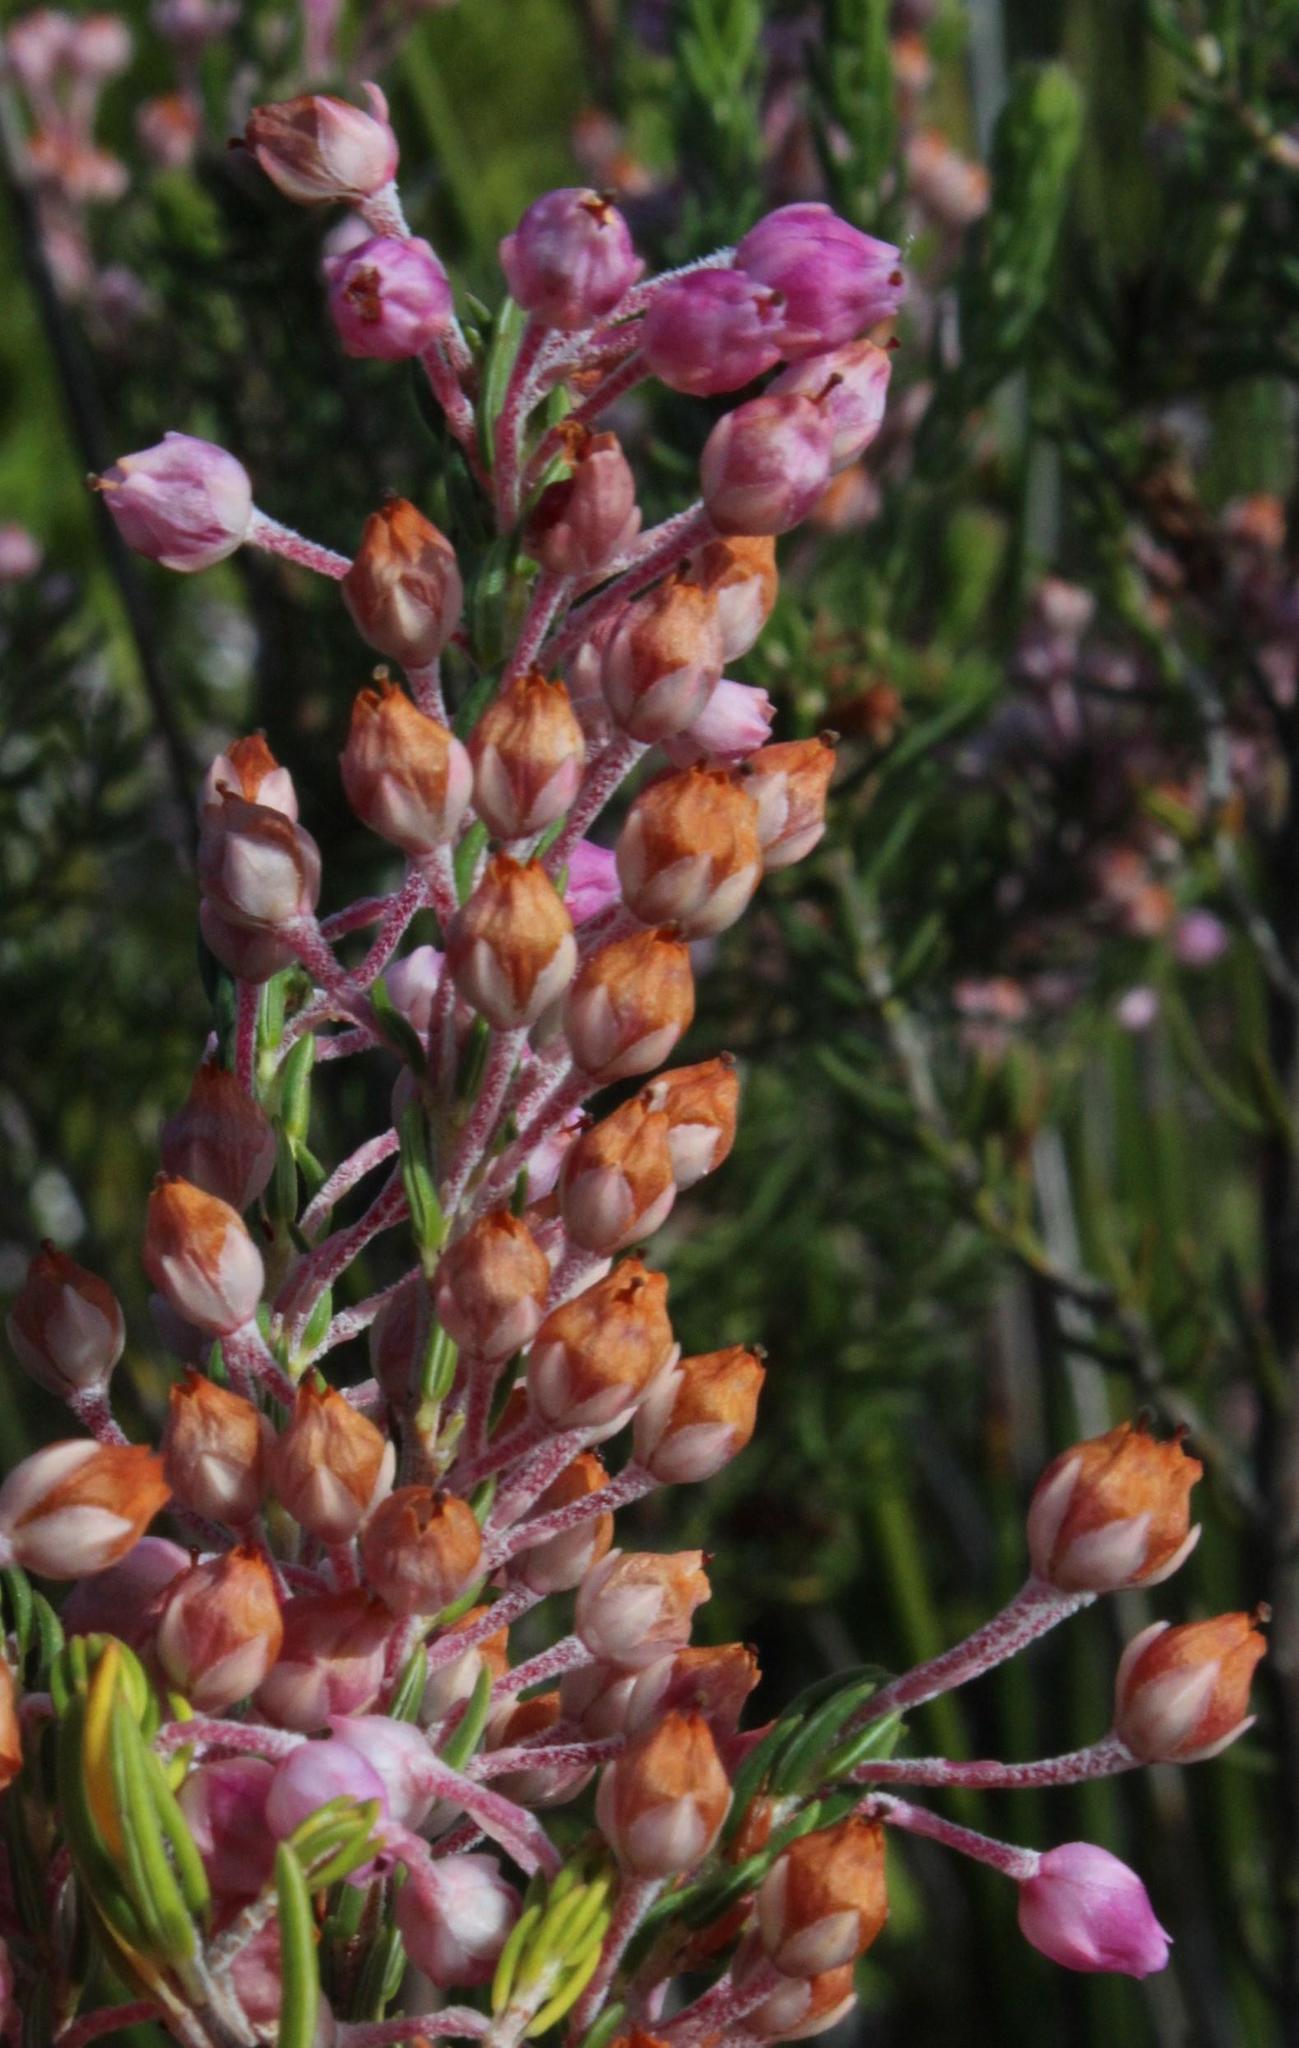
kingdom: Plantae
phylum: Tracheophyta
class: Magnoliopsida
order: Ericales
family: Ericaceae
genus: Erica
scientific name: Erica irregularis
